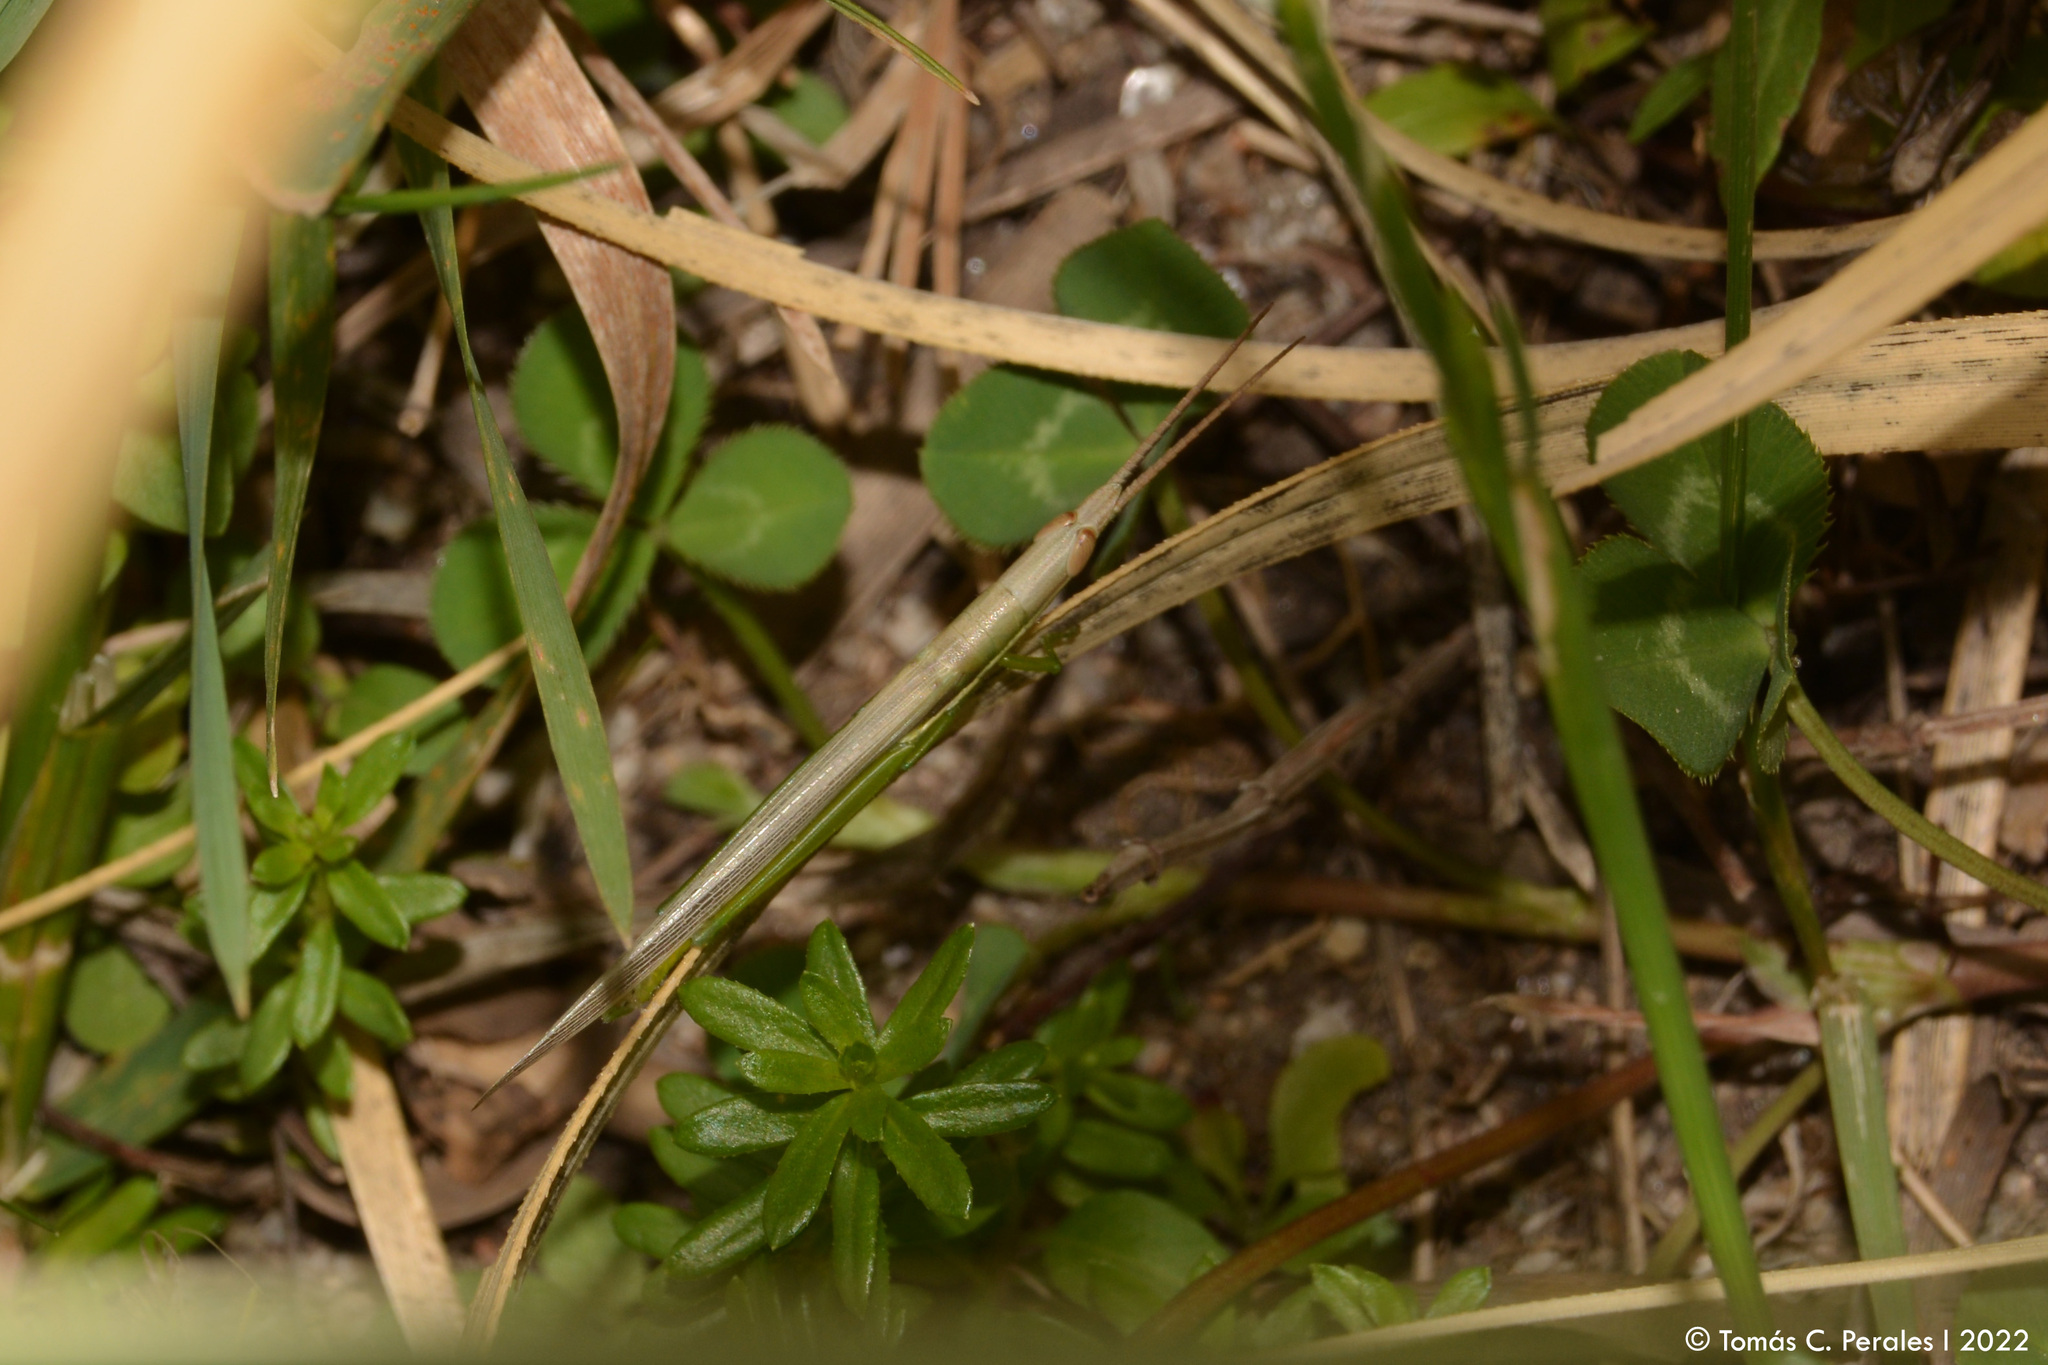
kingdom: Animalia
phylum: Arthropoda
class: Insecta
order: Orthoptera
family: Acrididae
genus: Leptysma
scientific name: Leptysma argentina
